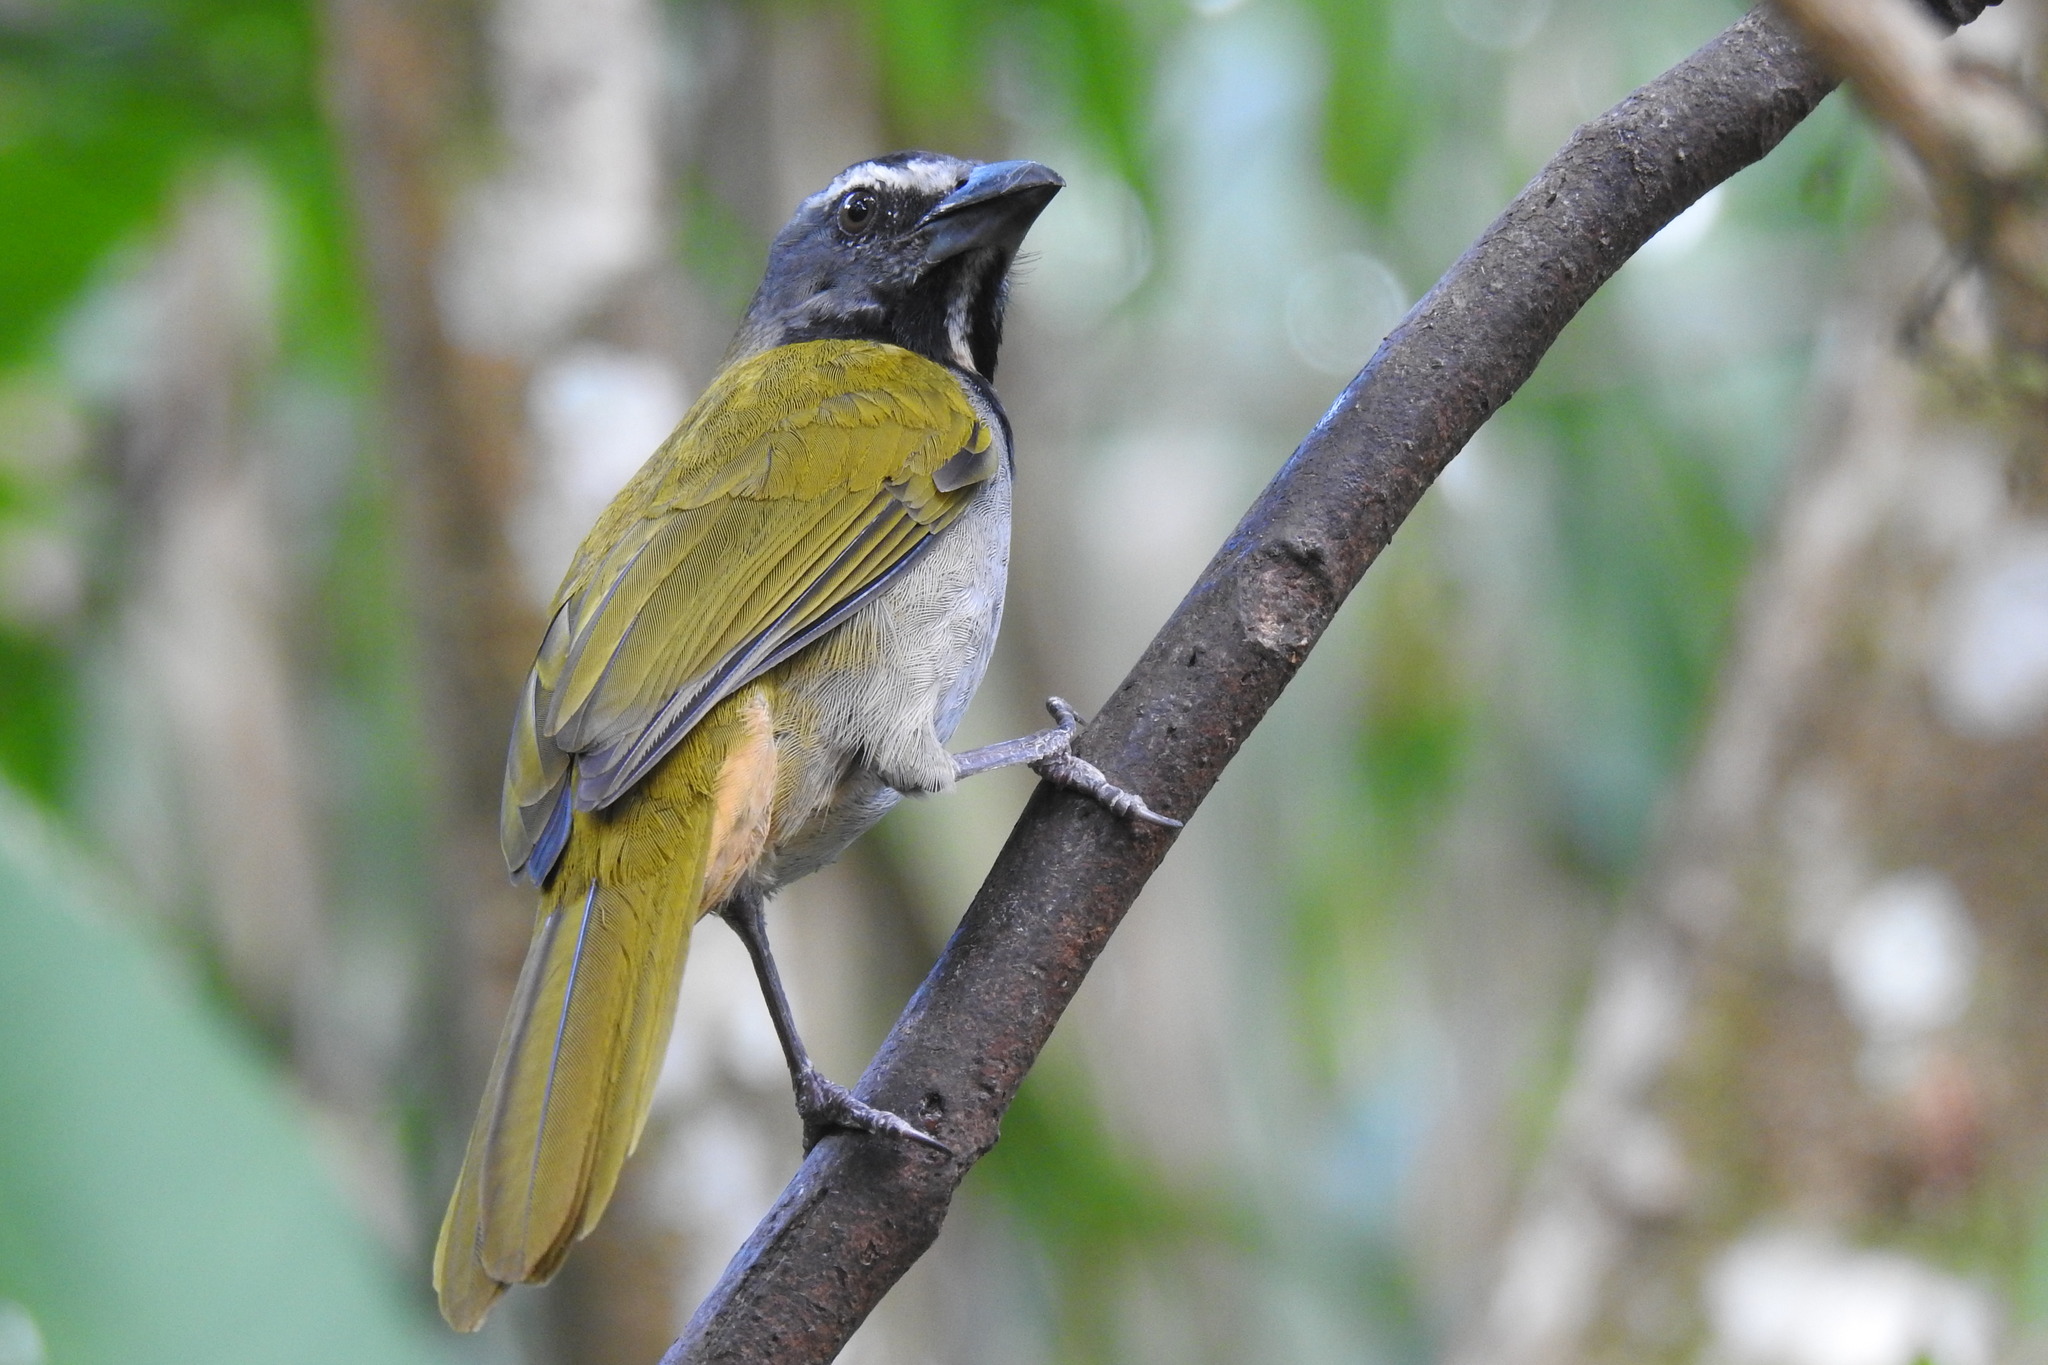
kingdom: Animalia
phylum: Chordata
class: Aves
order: Passeriformes
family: Thraupidae
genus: Saltator
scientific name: Saltator maximus
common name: Buff-throated saltator
